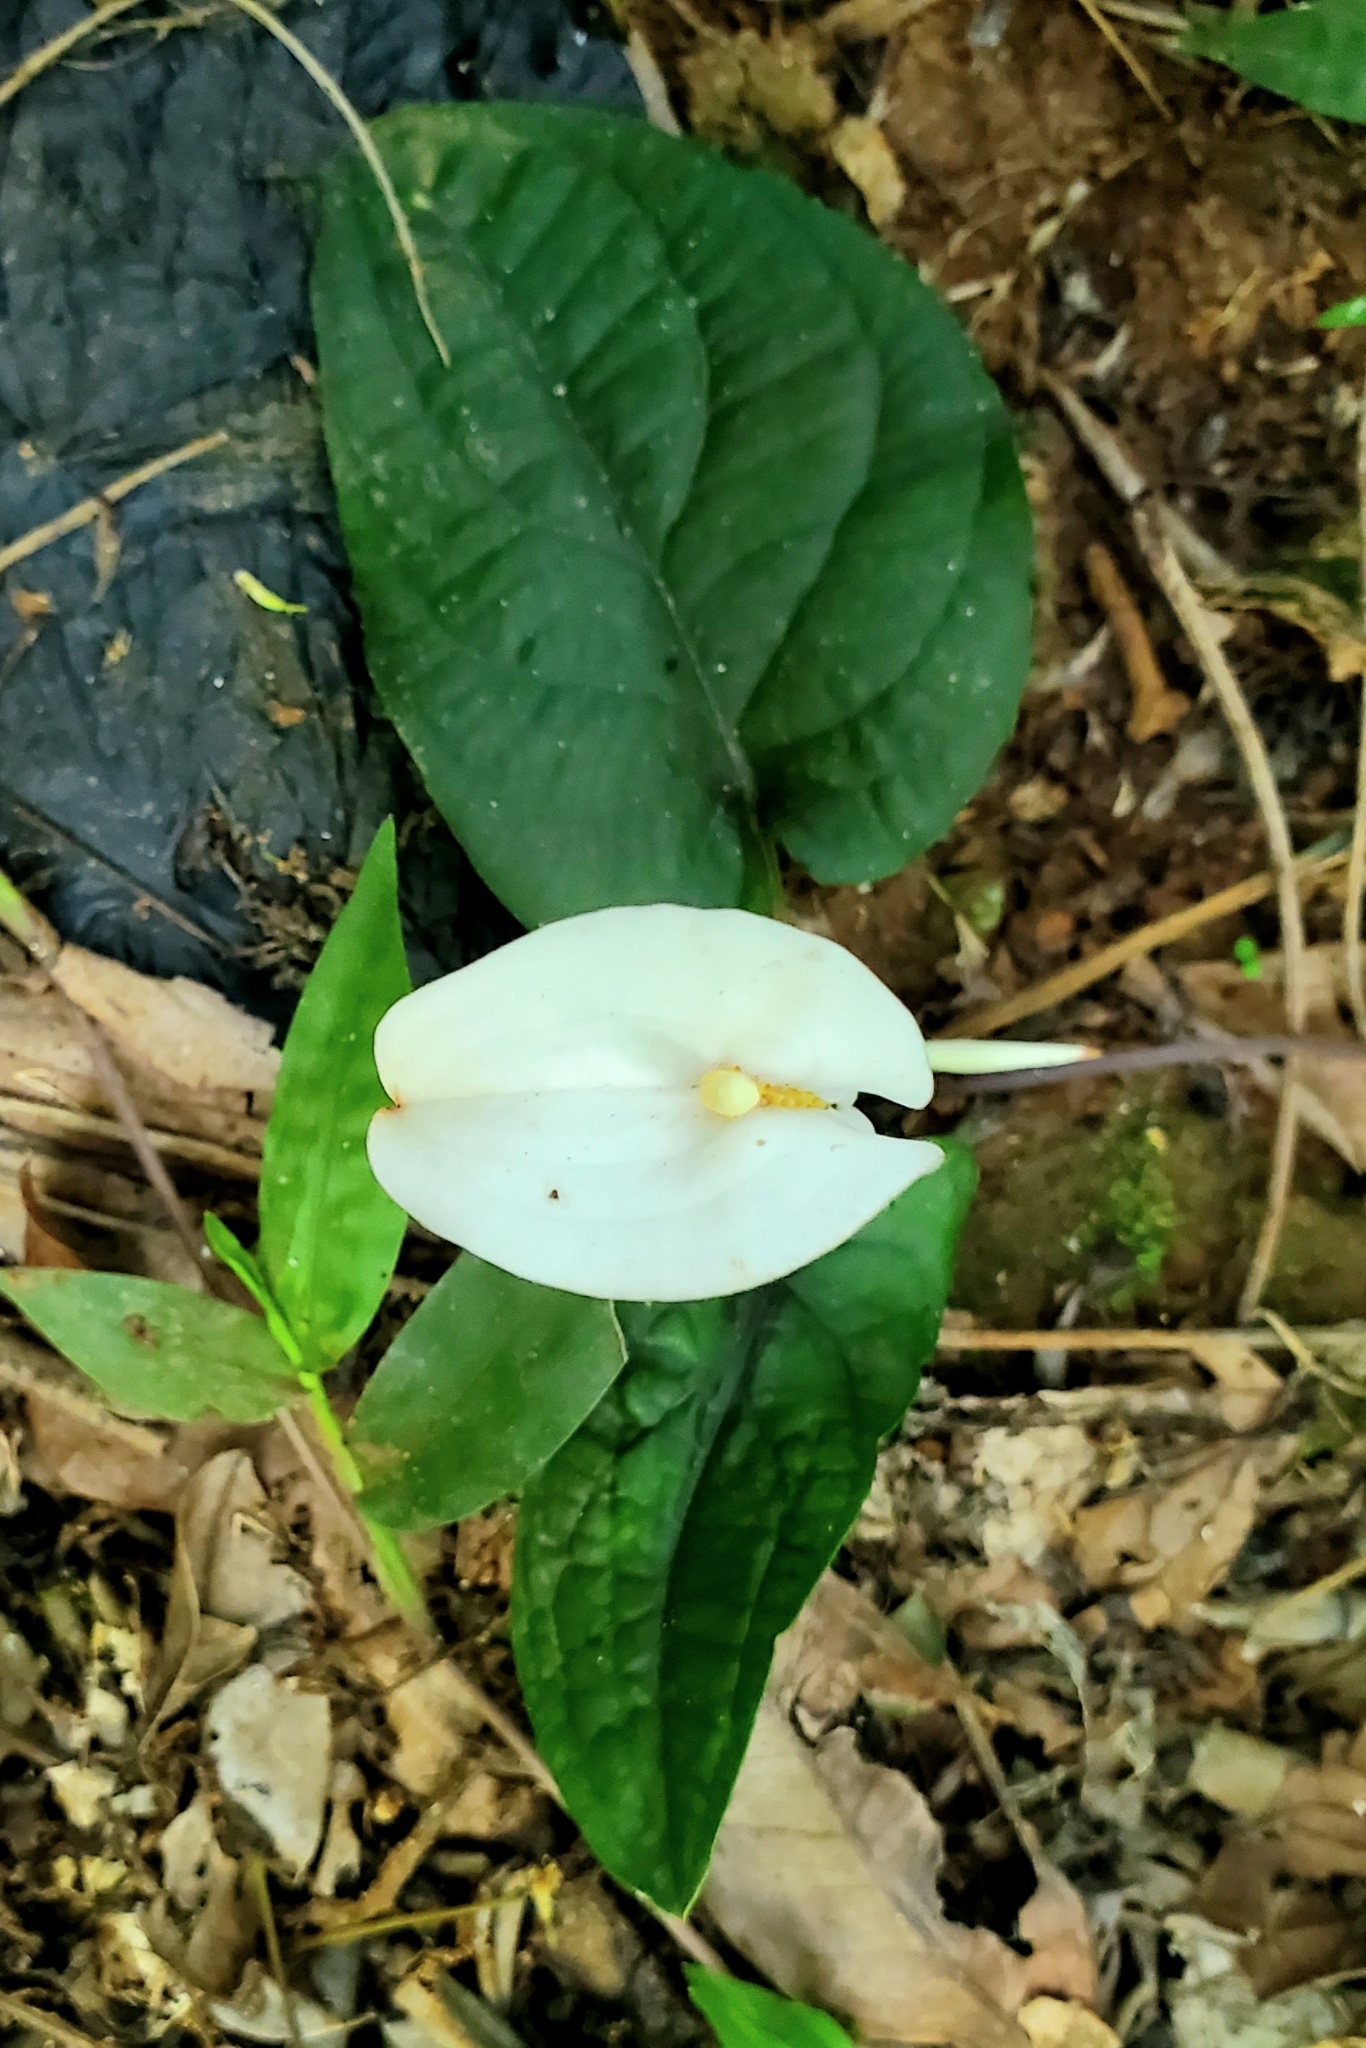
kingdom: Plantae
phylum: Tracheophyta
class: Liliopsida
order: Alismatales
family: Araceae
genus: Callopsis
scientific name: Callopsis volkensii
